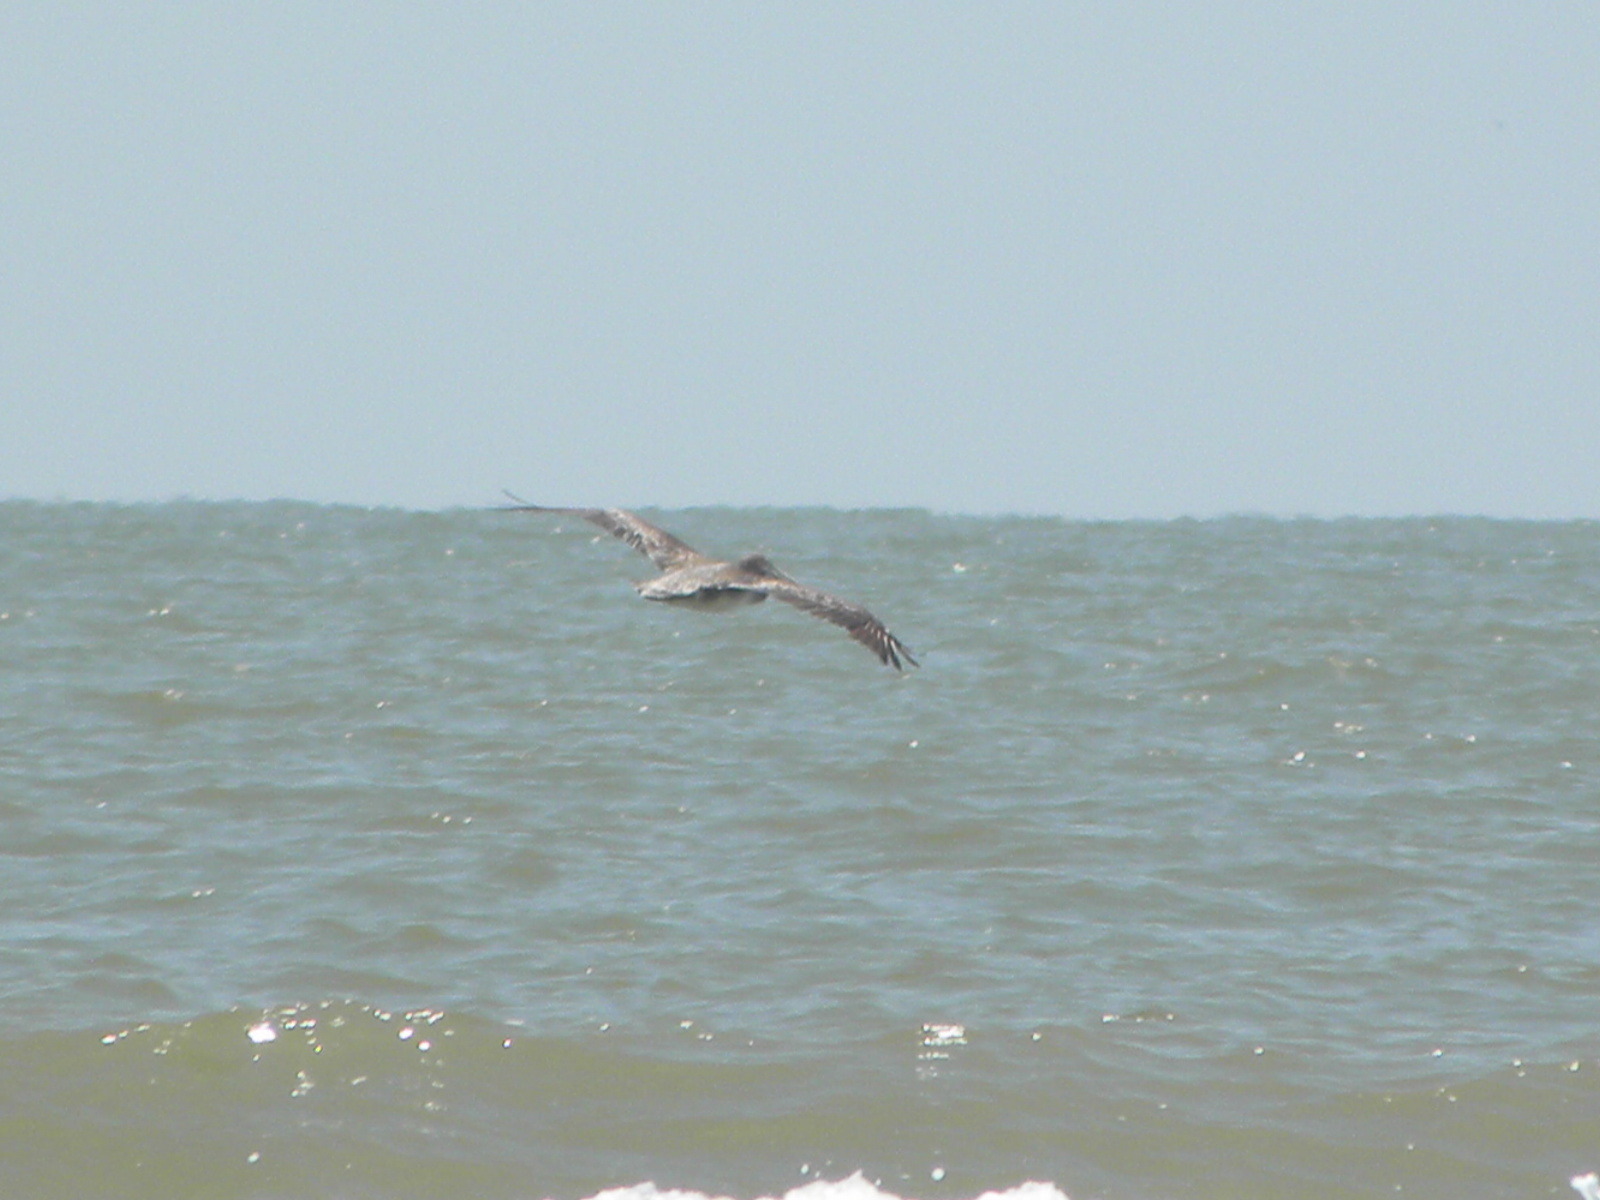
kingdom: Animalia
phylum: Chordata
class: Aves
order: Pelecaniformes
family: Pelecanidae
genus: Pelecanus
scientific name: Pelecanus occidentalis
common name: Brown pelican
